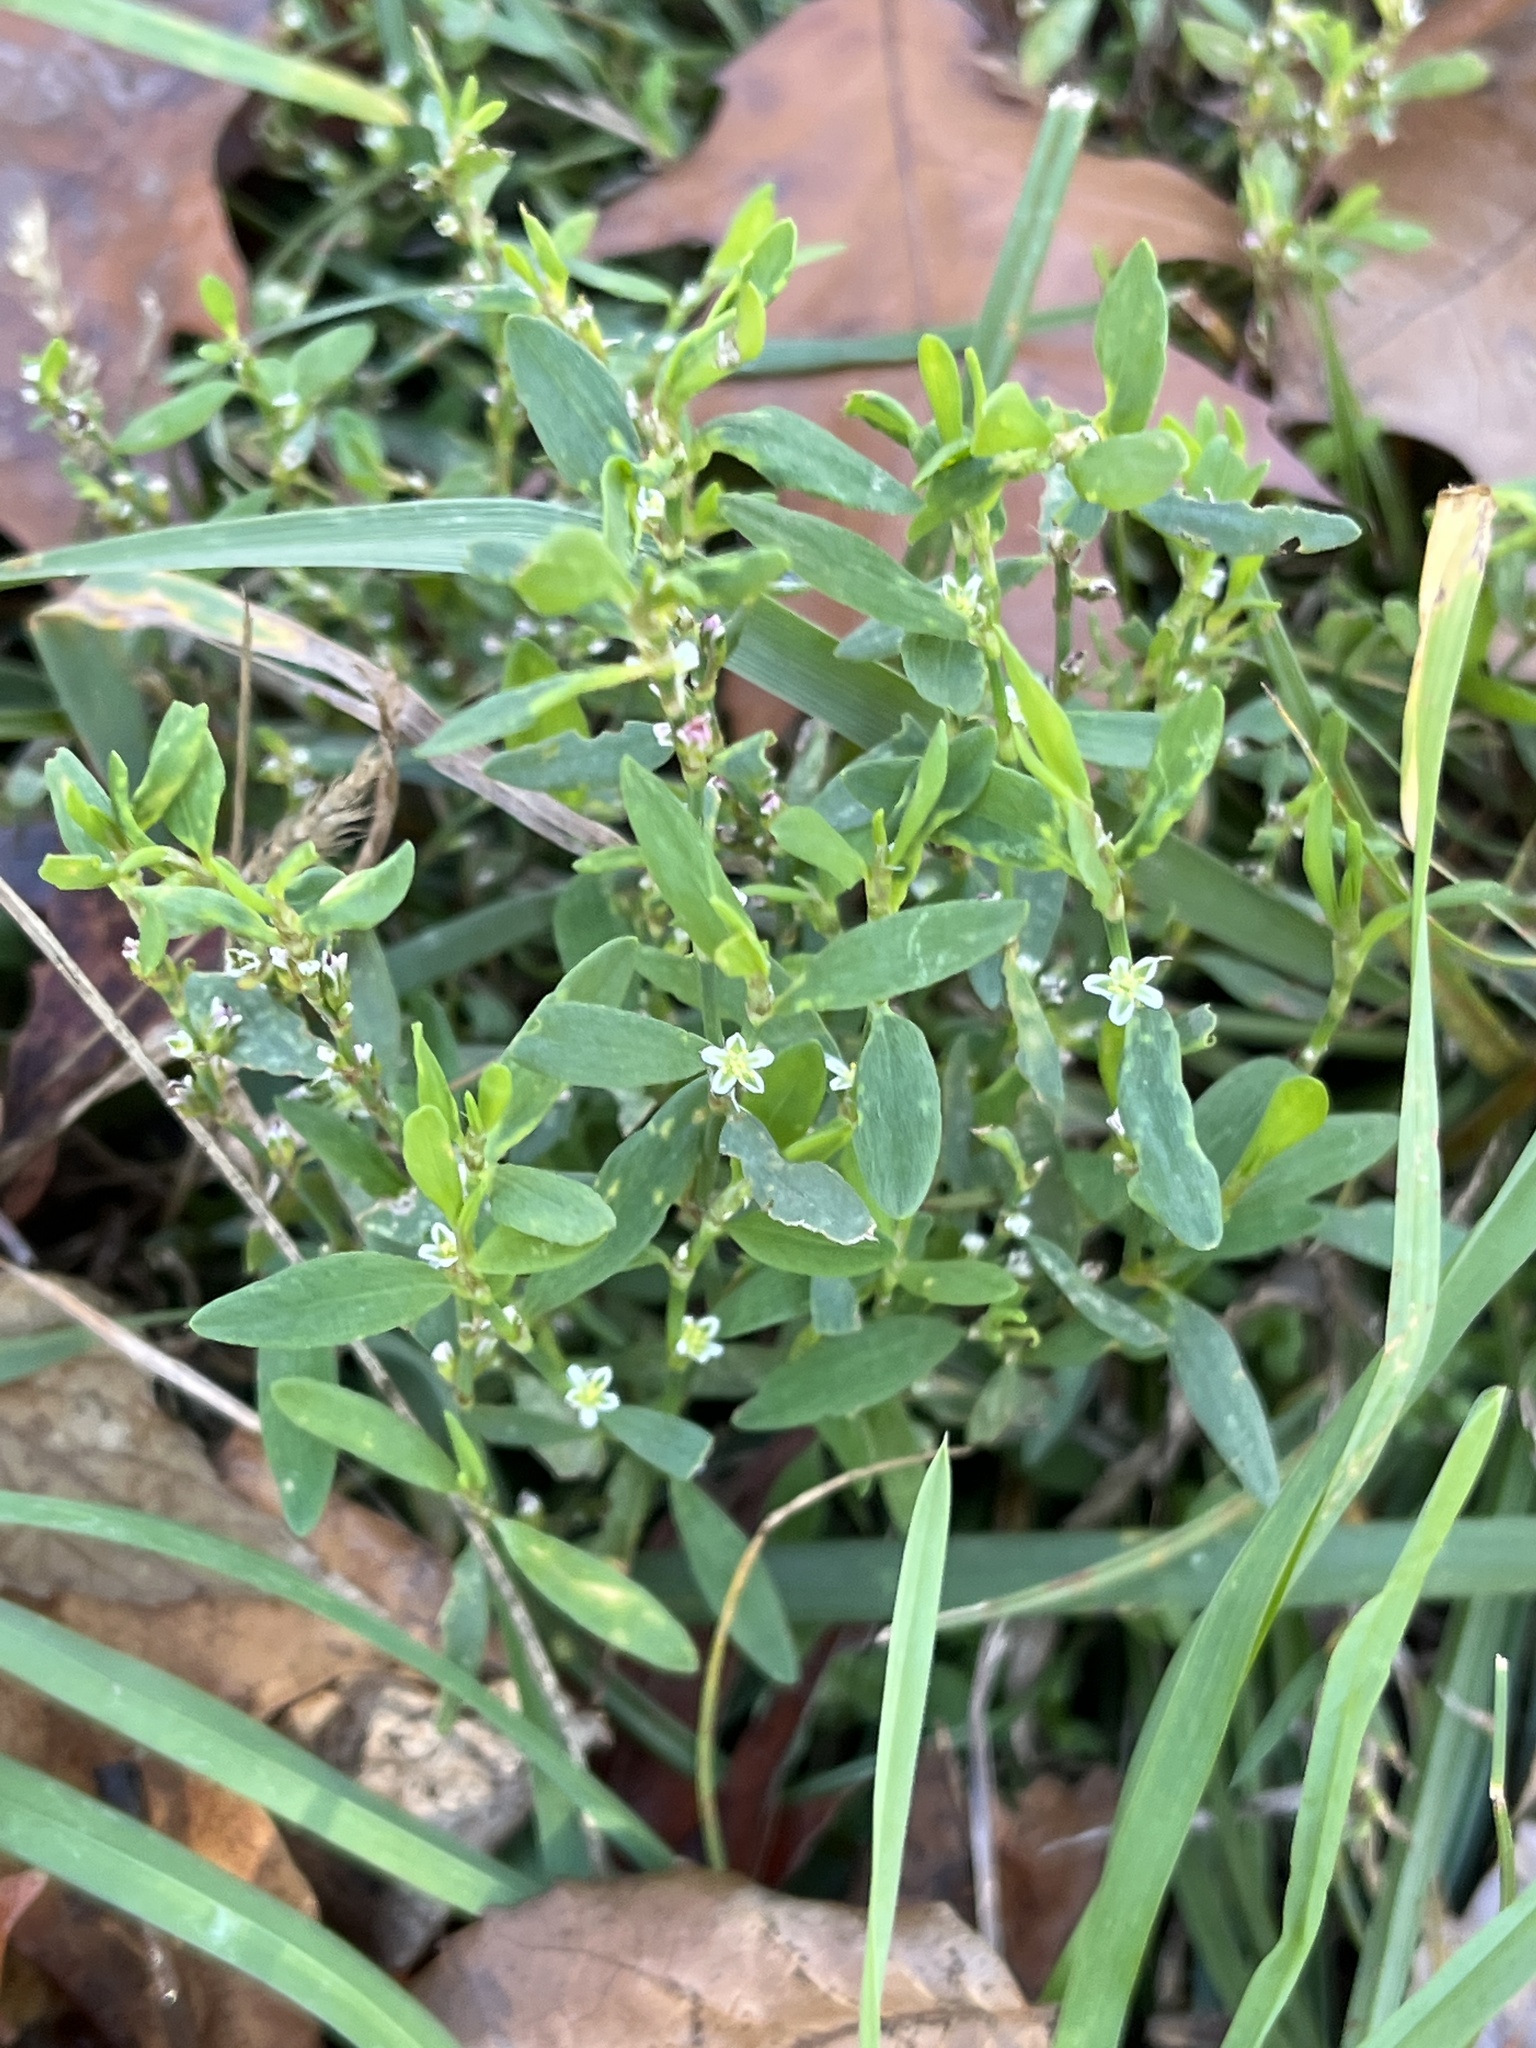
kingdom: Plantae
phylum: Tracheophyta
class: Magnoliopsida
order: Caryophyllales
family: Polygonaceae
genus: Polygonum
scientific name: Polygonum aviculare
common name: Prostrate knotweed
